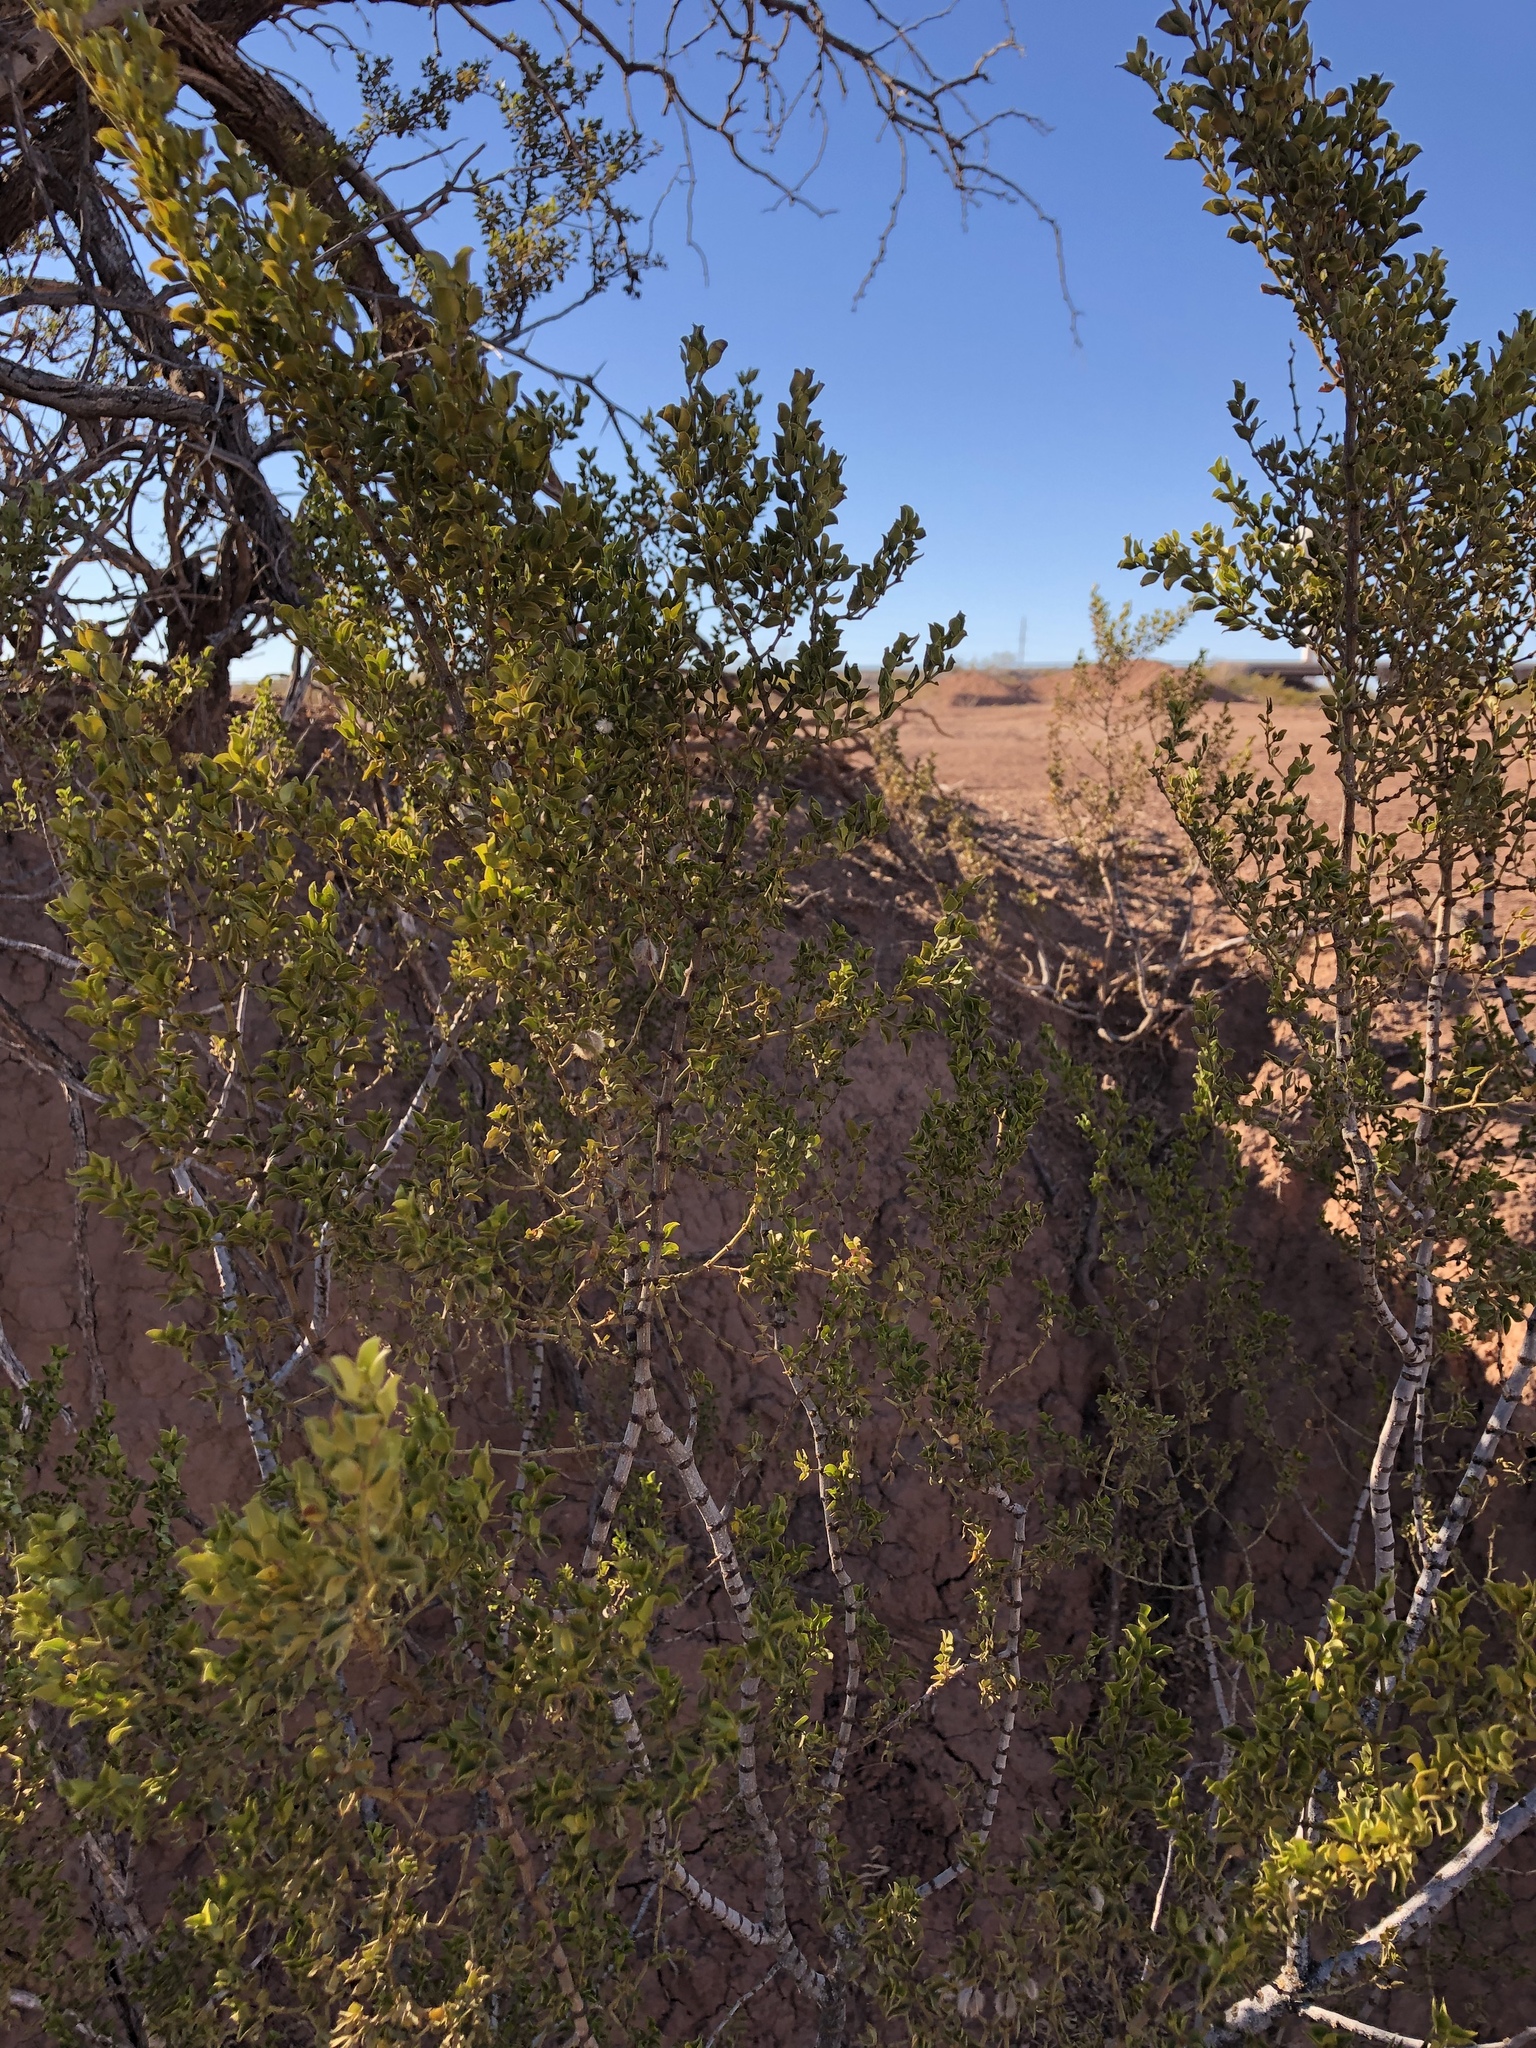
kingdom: Plantae
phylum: Tracheophyta
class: Magnoliopsida
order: Zygophyllales
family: Zygophyllaceae
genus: Larrea
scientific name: Larrea tridentata
